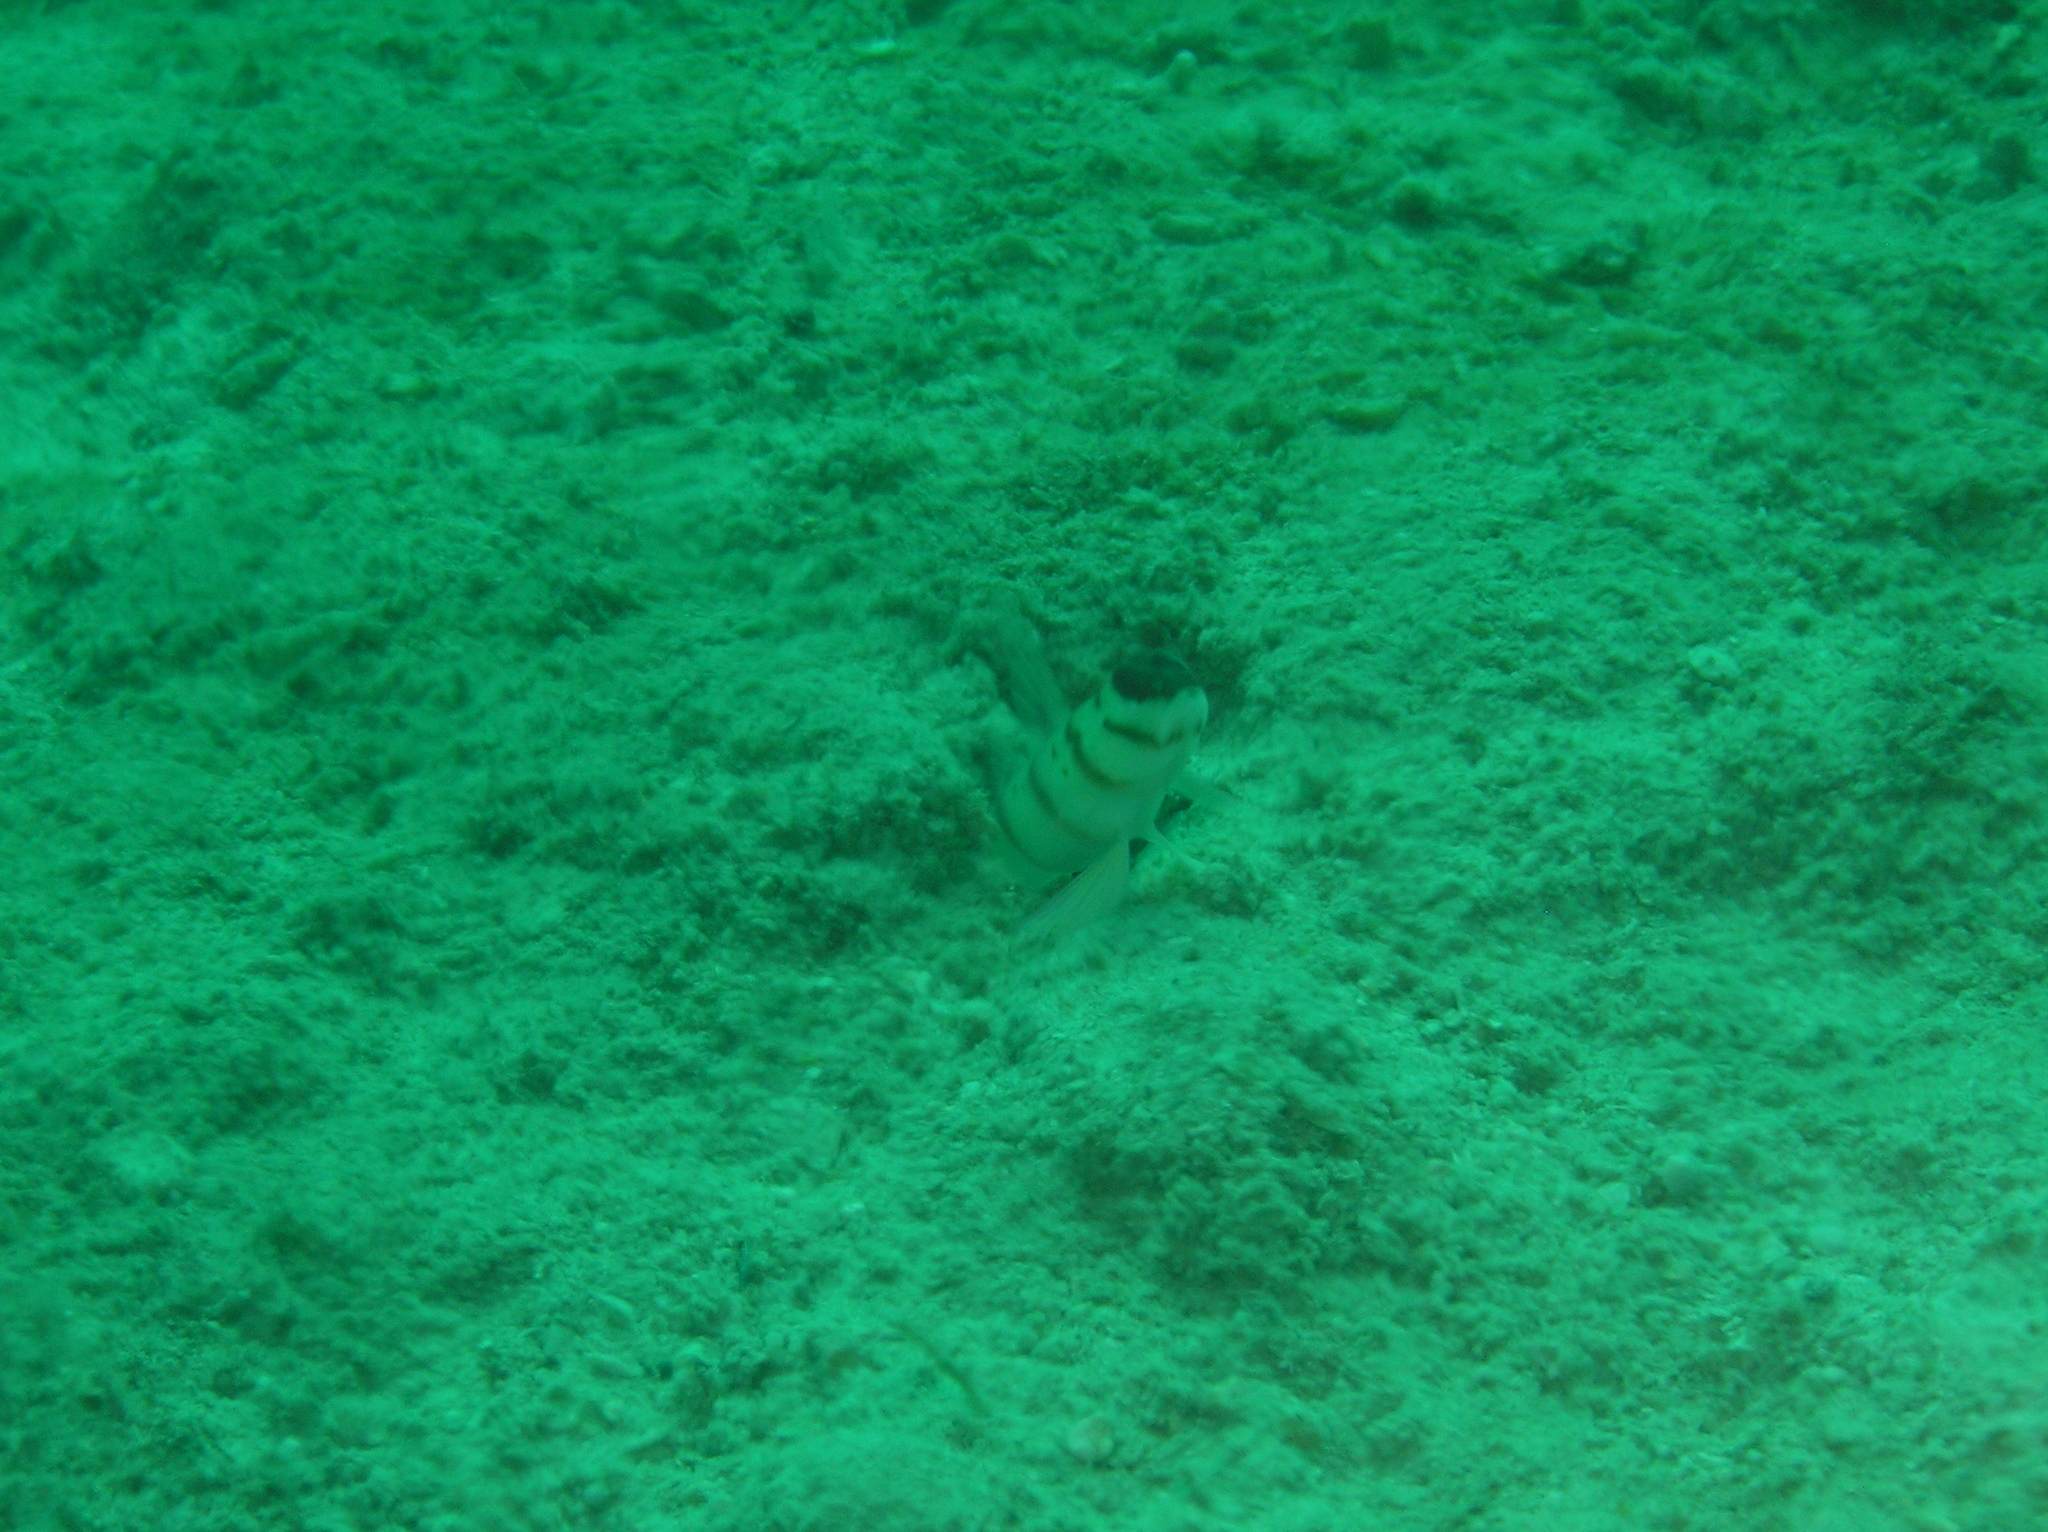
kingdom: Animalia
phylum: Chordata
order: Perciformes
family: Gobiidae
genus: Amblyeleotris
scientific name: Amblyeleotris diagonalis
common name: Diagonal shrimp goby
